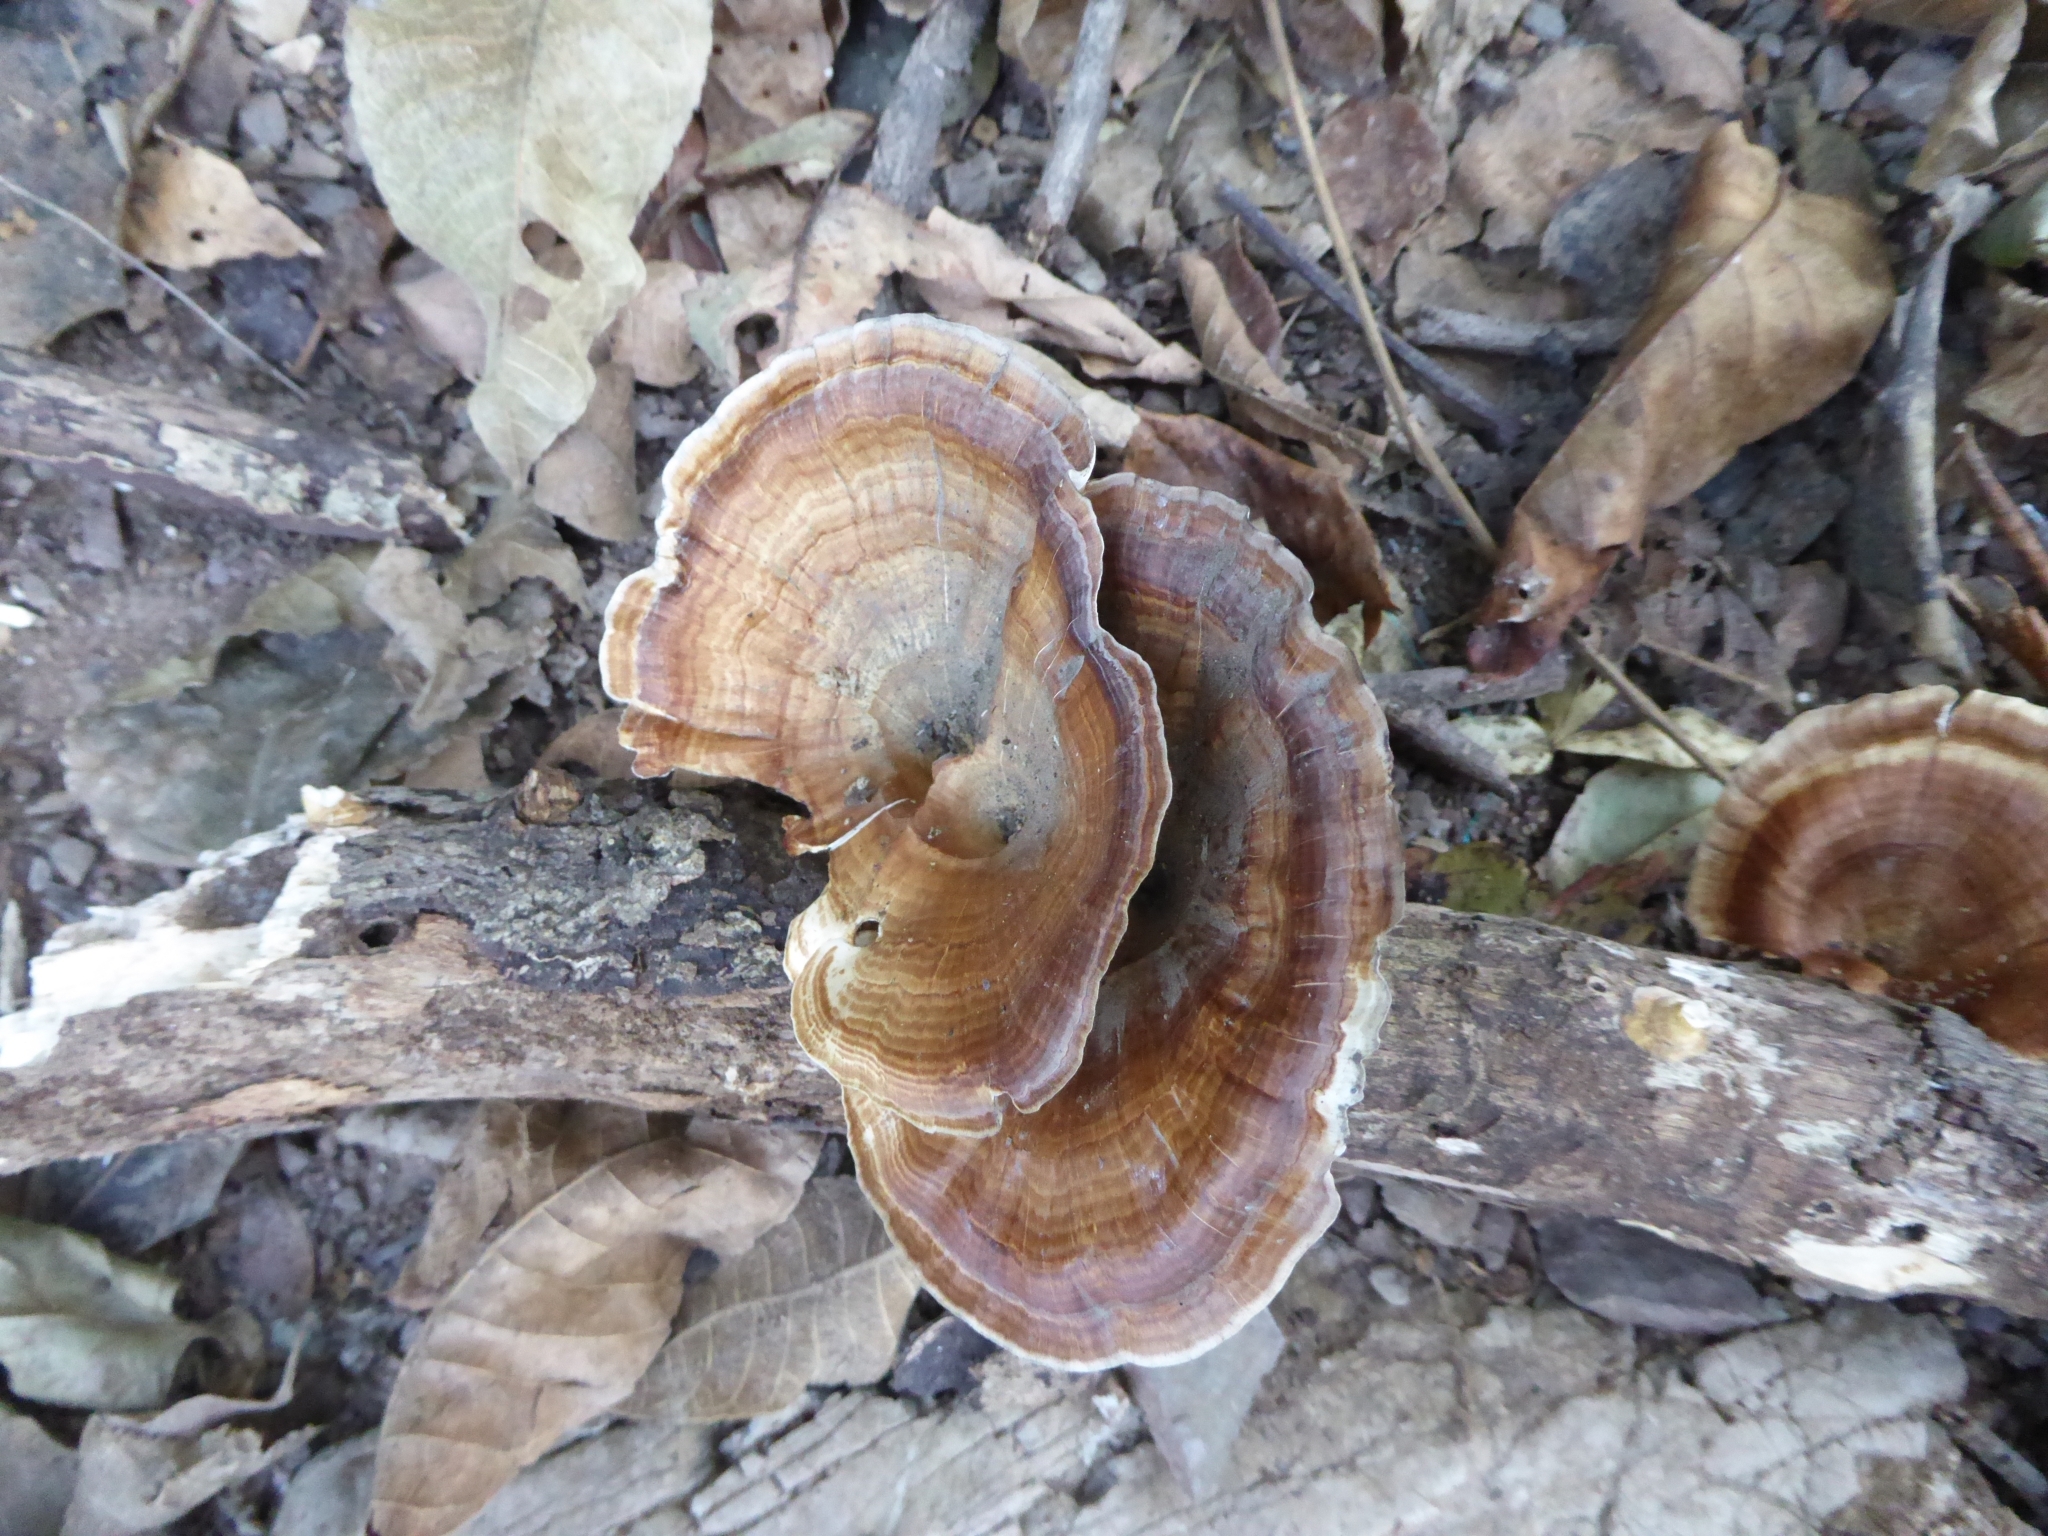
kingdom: Fungi
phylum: Basidiomycota
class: Agaricomycetes
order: Polyporales
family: Polyporaceae
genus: Microporus
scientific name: Microporus xanthopus
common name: Yellow-stemmed micropore
